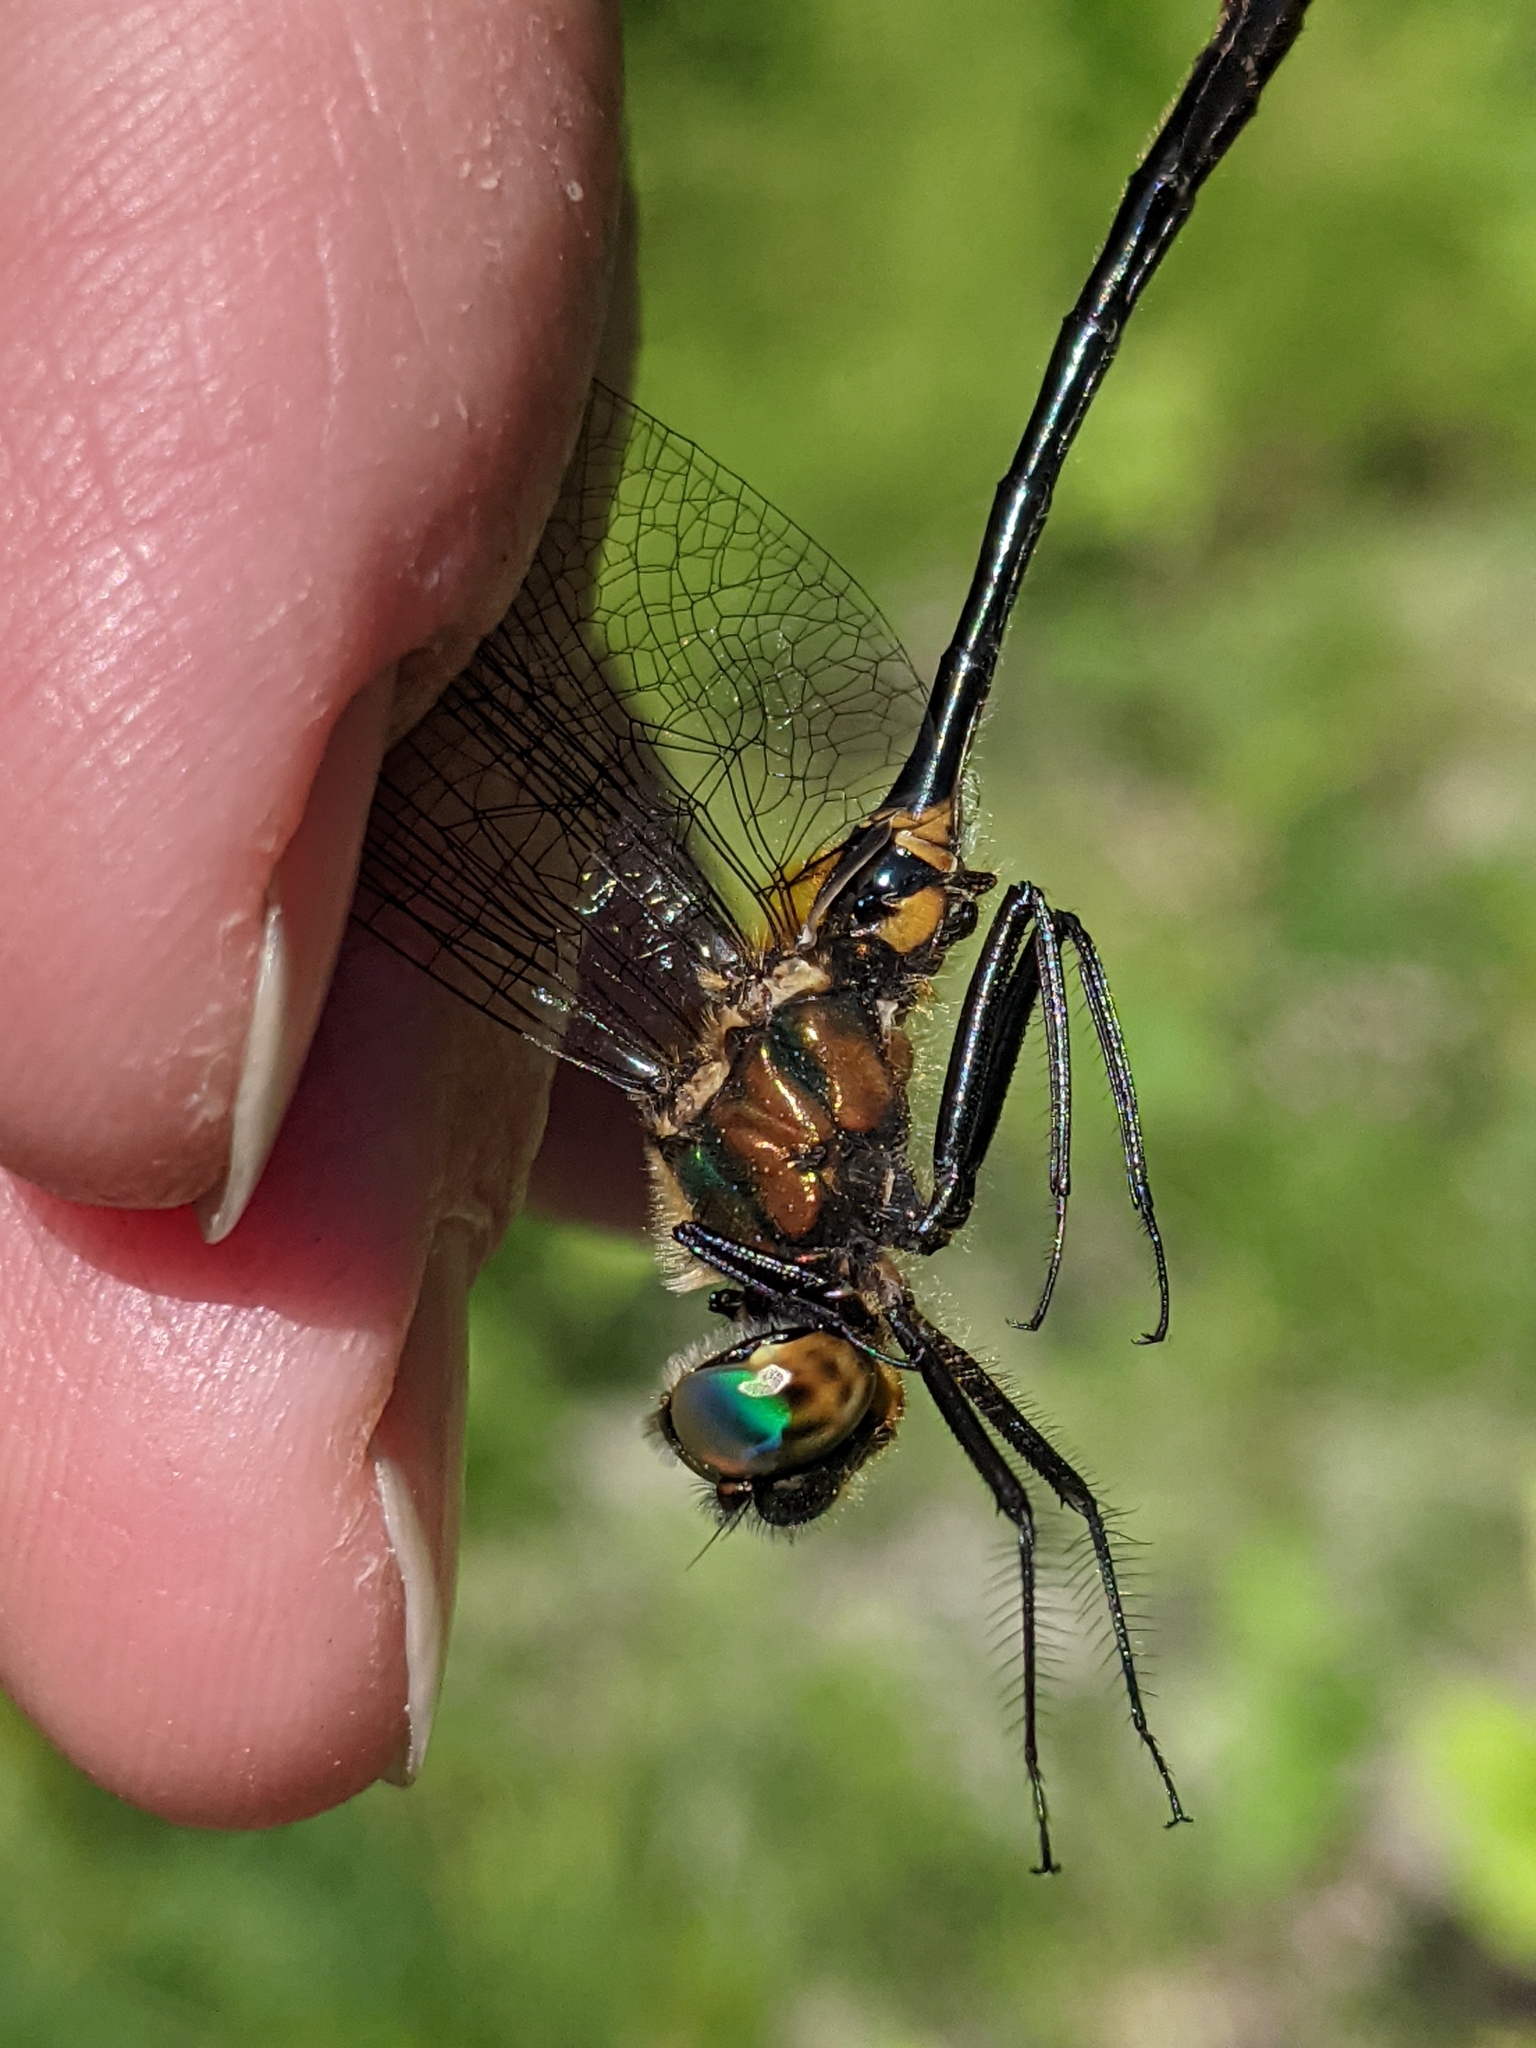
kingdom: Animalia
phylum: Arthropoda
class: Insecta
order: Odonata
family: Corduliidae
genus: Dorocordulia
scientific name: Dorocordulia libera
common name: Racket-tailed emerald
